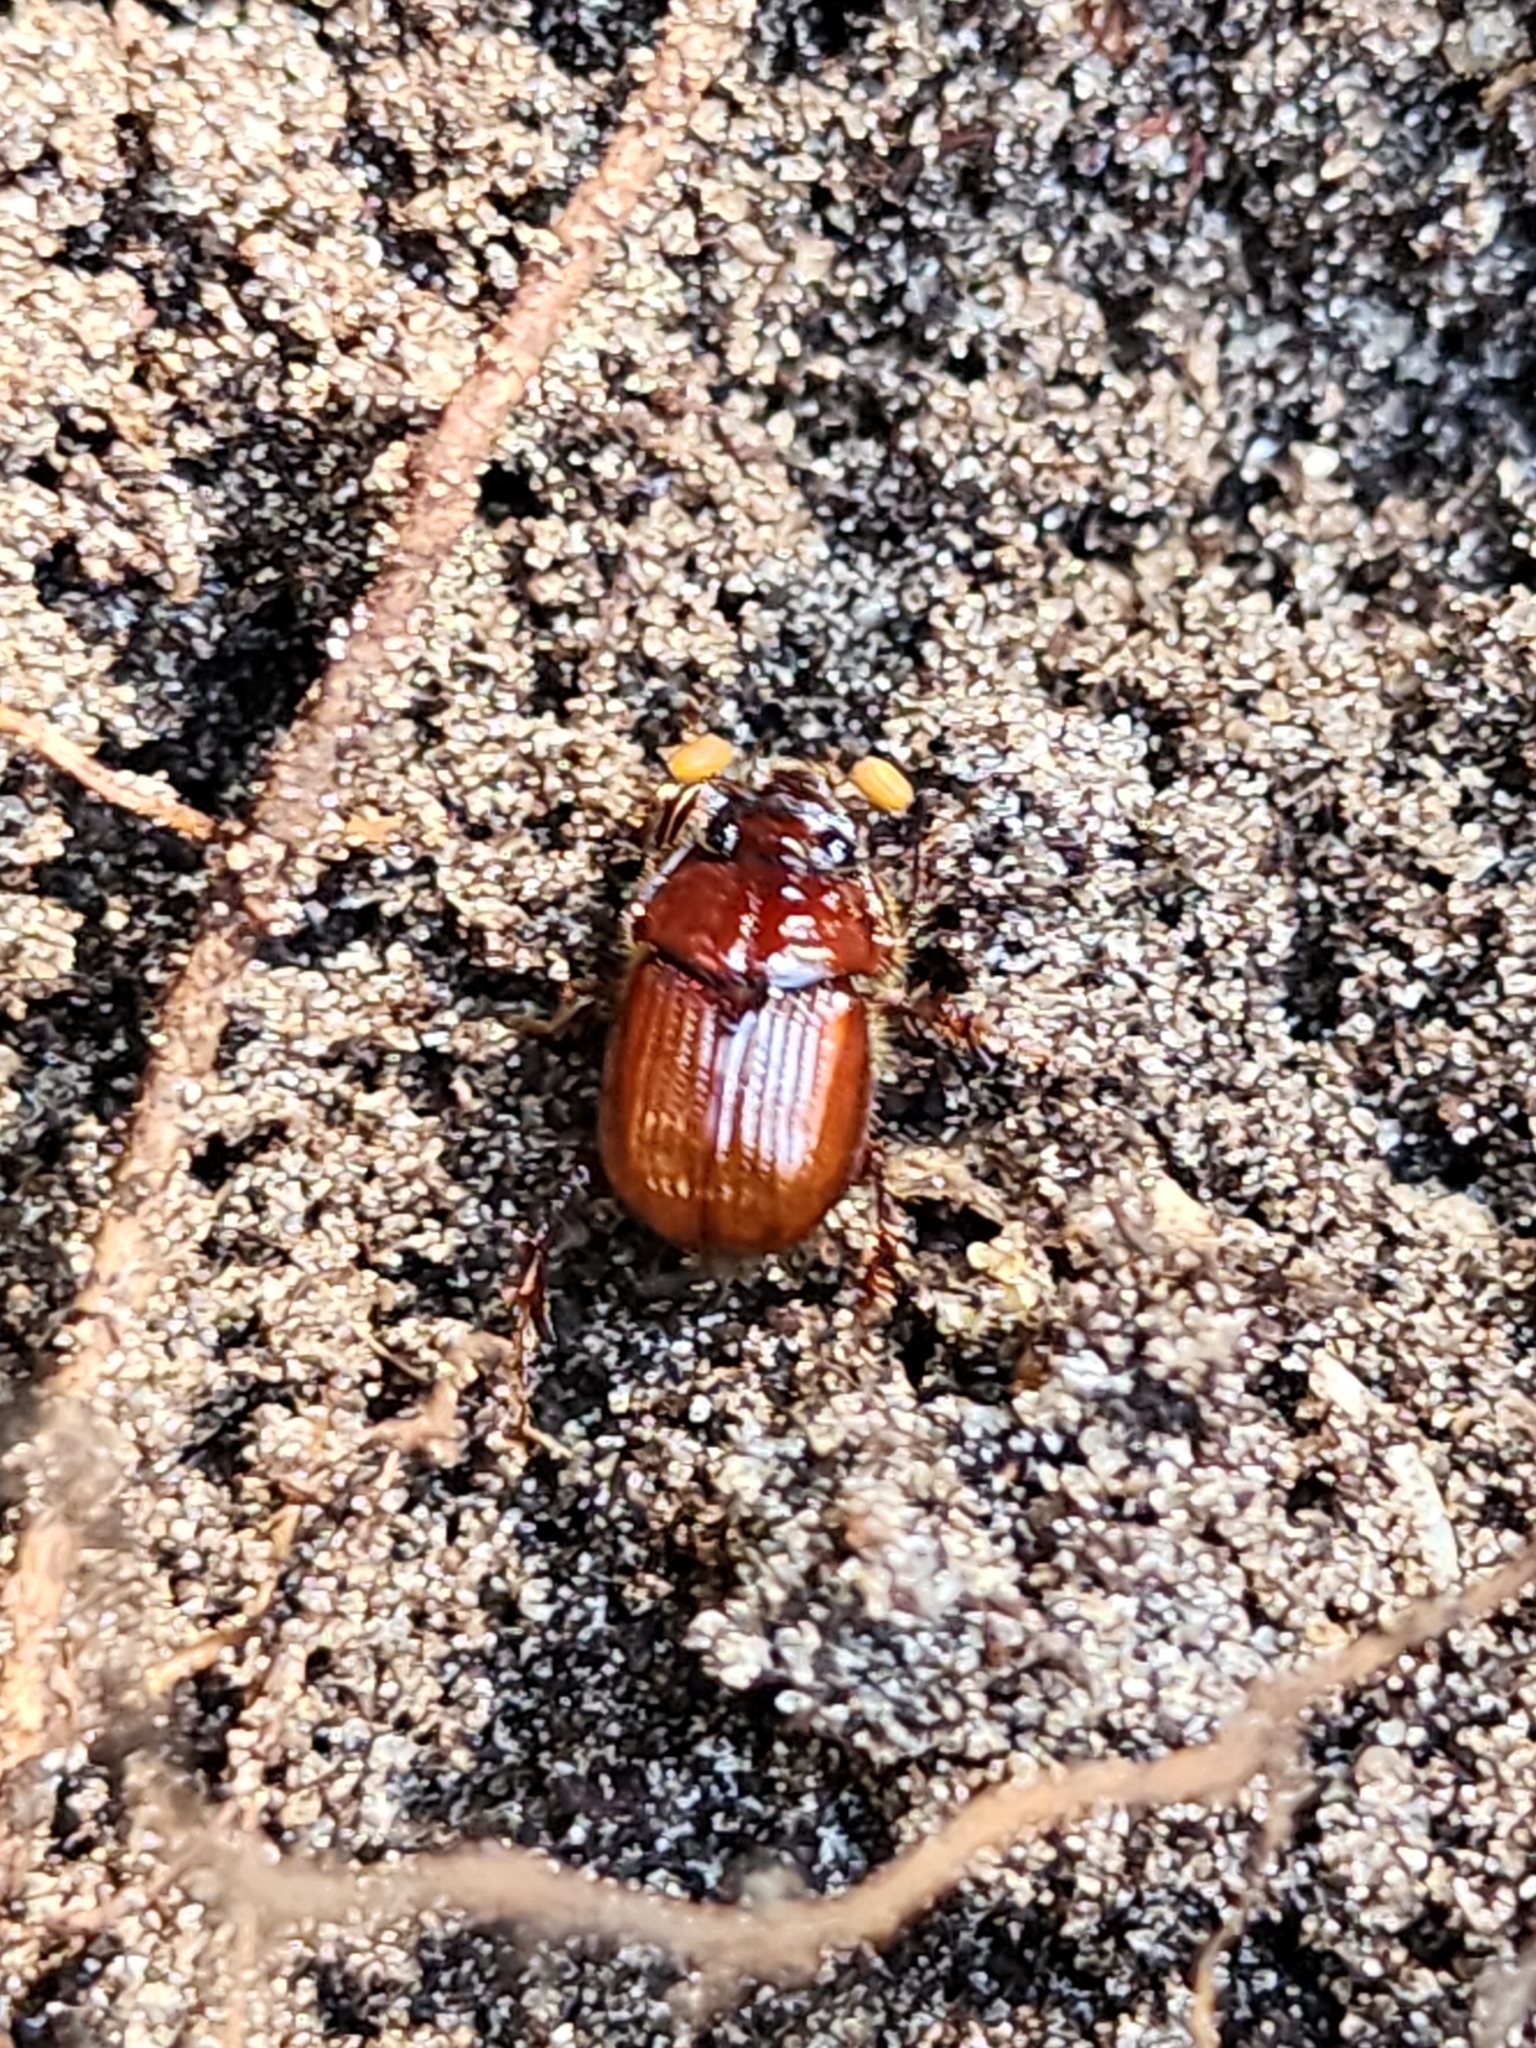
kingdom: Animalia
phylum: Arthropoda
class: Insecta
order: Coleoptera
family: Geotrupidae
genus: Eucanthus
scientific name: Eucanthus impressus
